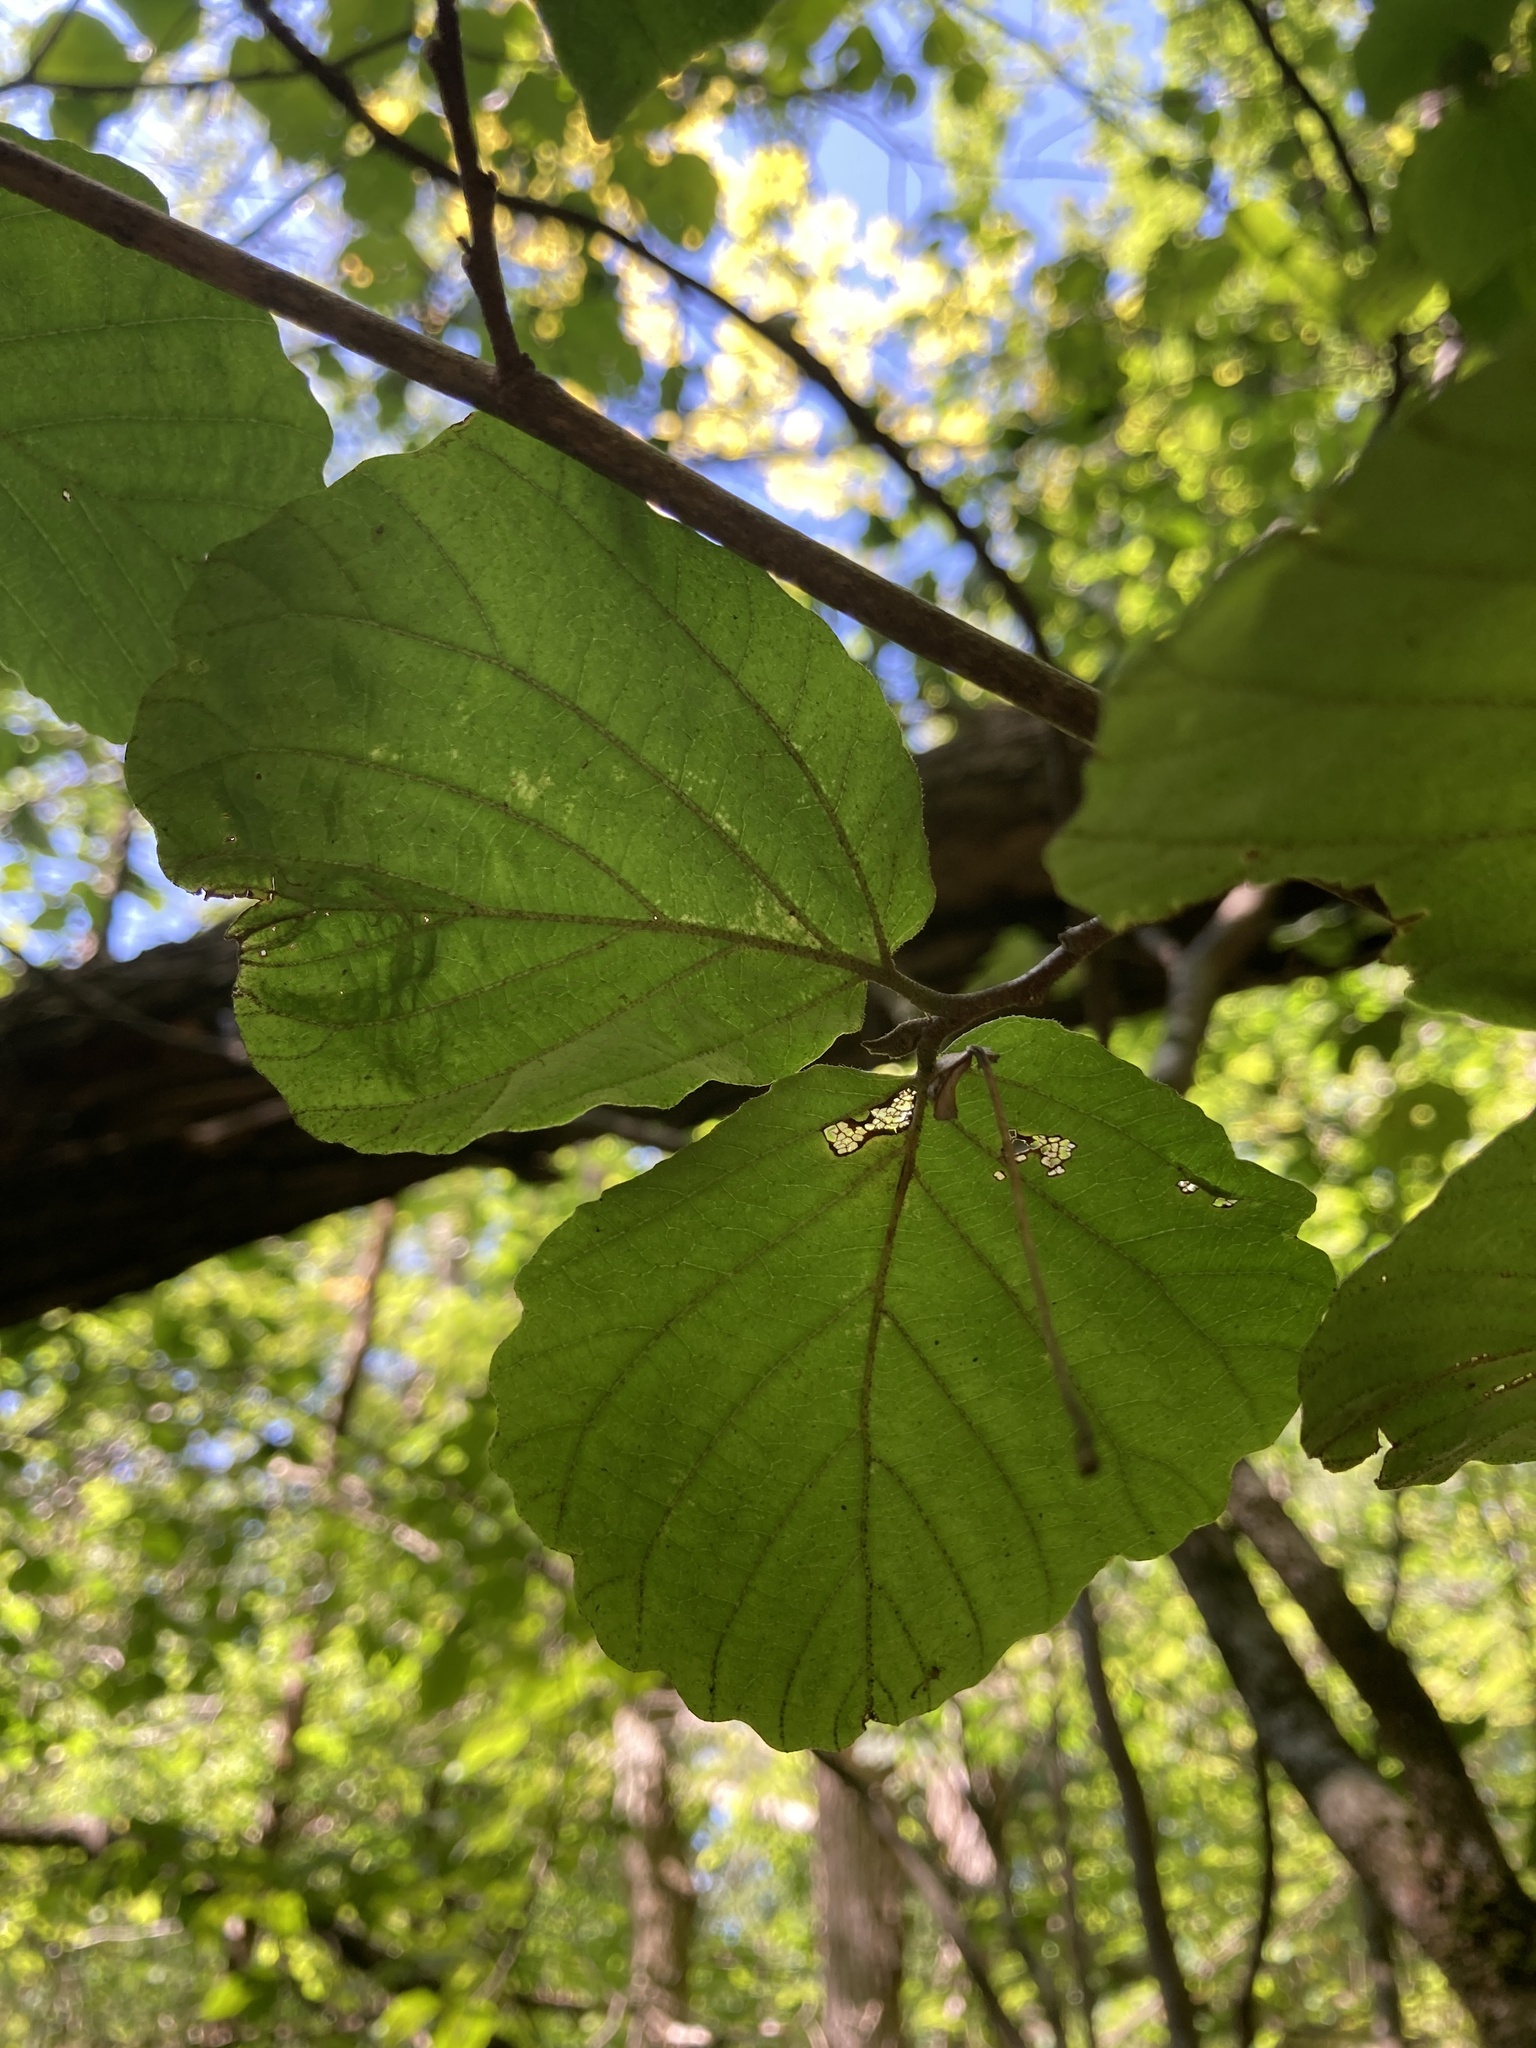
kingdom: Plantae
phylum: Tracheophyta
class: Magnoliopsida
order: Saxifragales
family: Hamamelidaceae
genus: Hamamelis
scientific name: Hamamelis virginiana
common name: Witch-hazel
